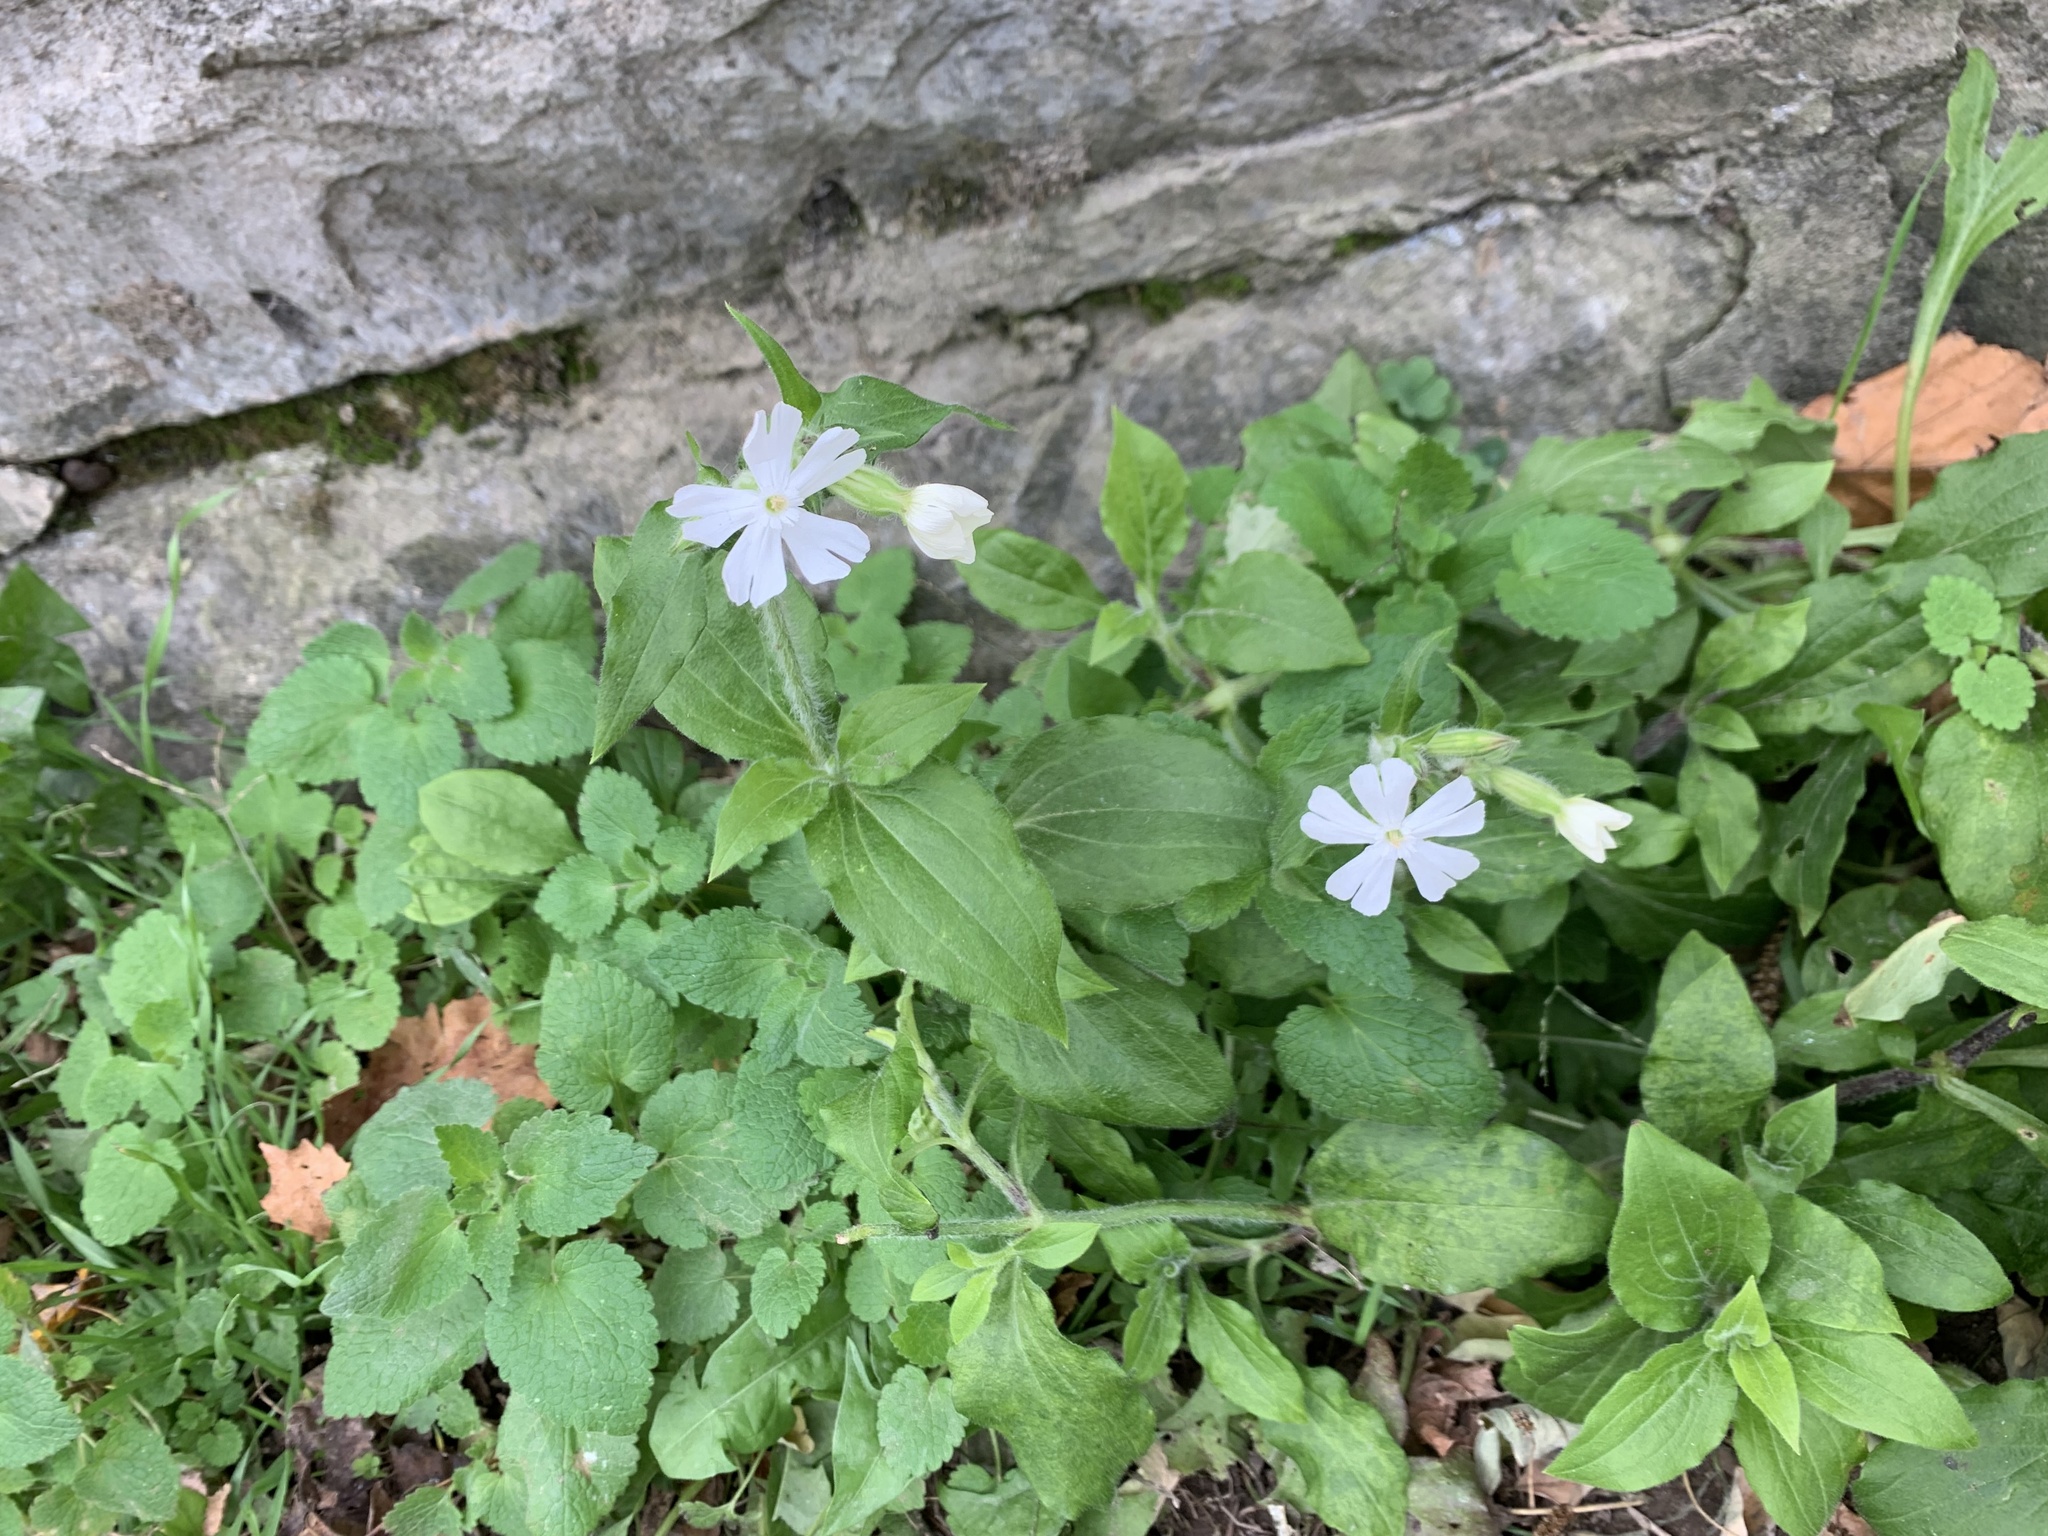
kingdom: Plantae
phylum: Tracheophyta
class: Magnoliopsida
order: Caryophyllales
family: Caryophyllaceae
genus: Silene
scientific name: Silene latifolia
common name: White campion
